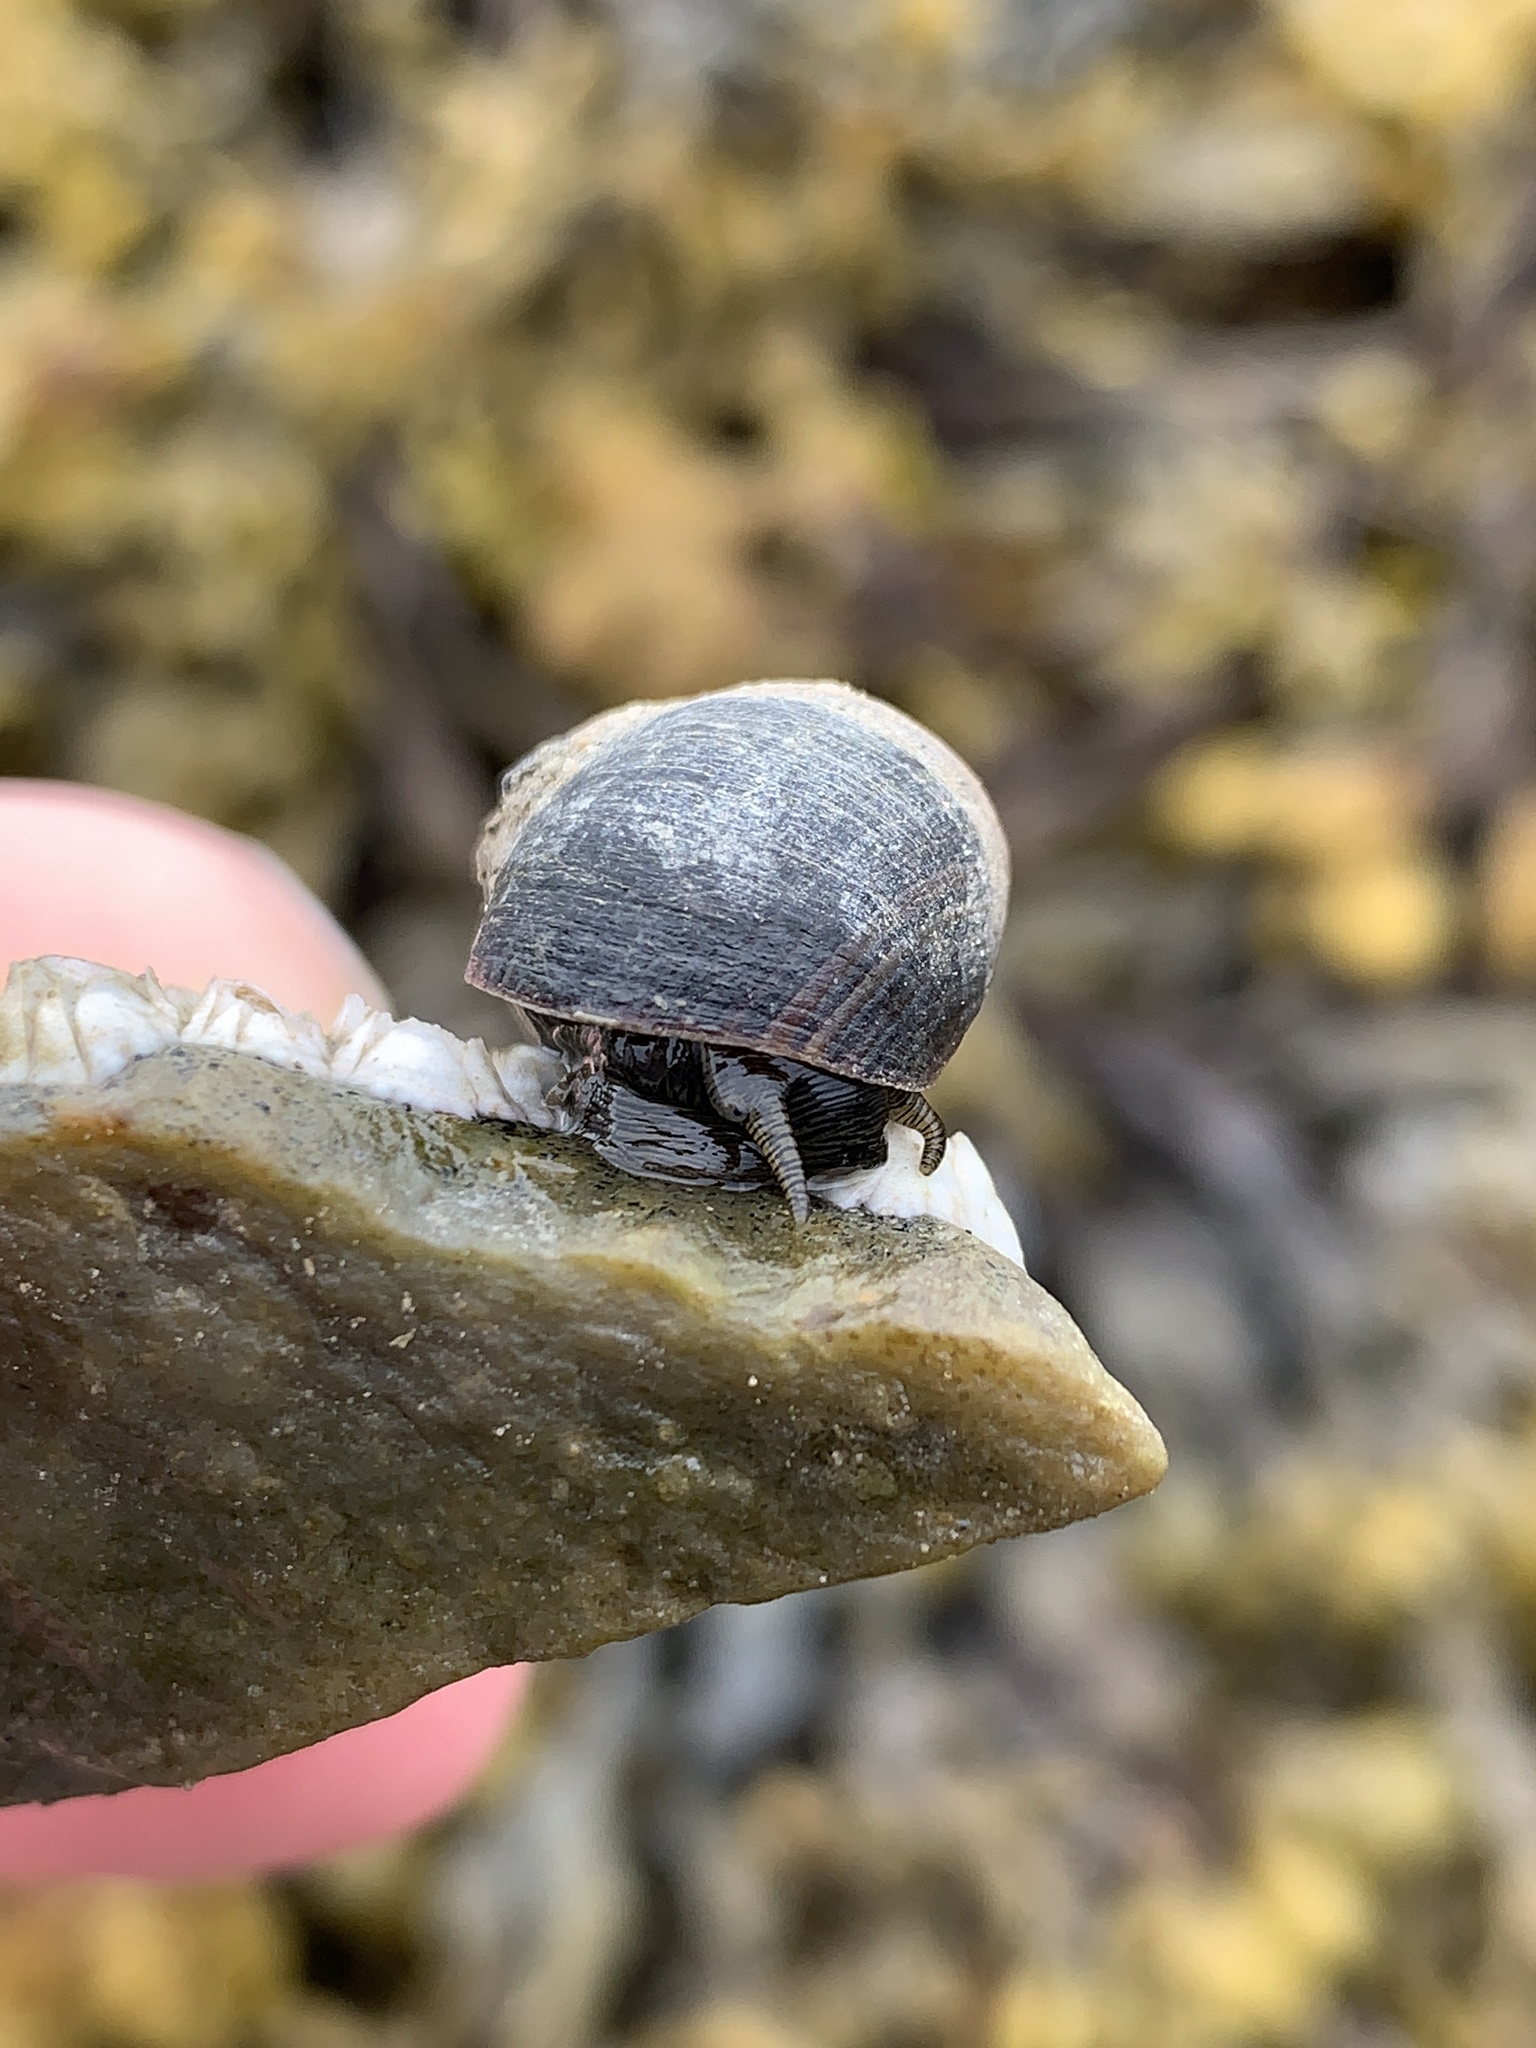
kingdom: Animalia
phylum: Mollusca
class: Gastropoda
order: Littorinimorpha
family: Littorinidae
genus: Littorina
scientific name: Littorina littorea
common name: Common periwinkle
